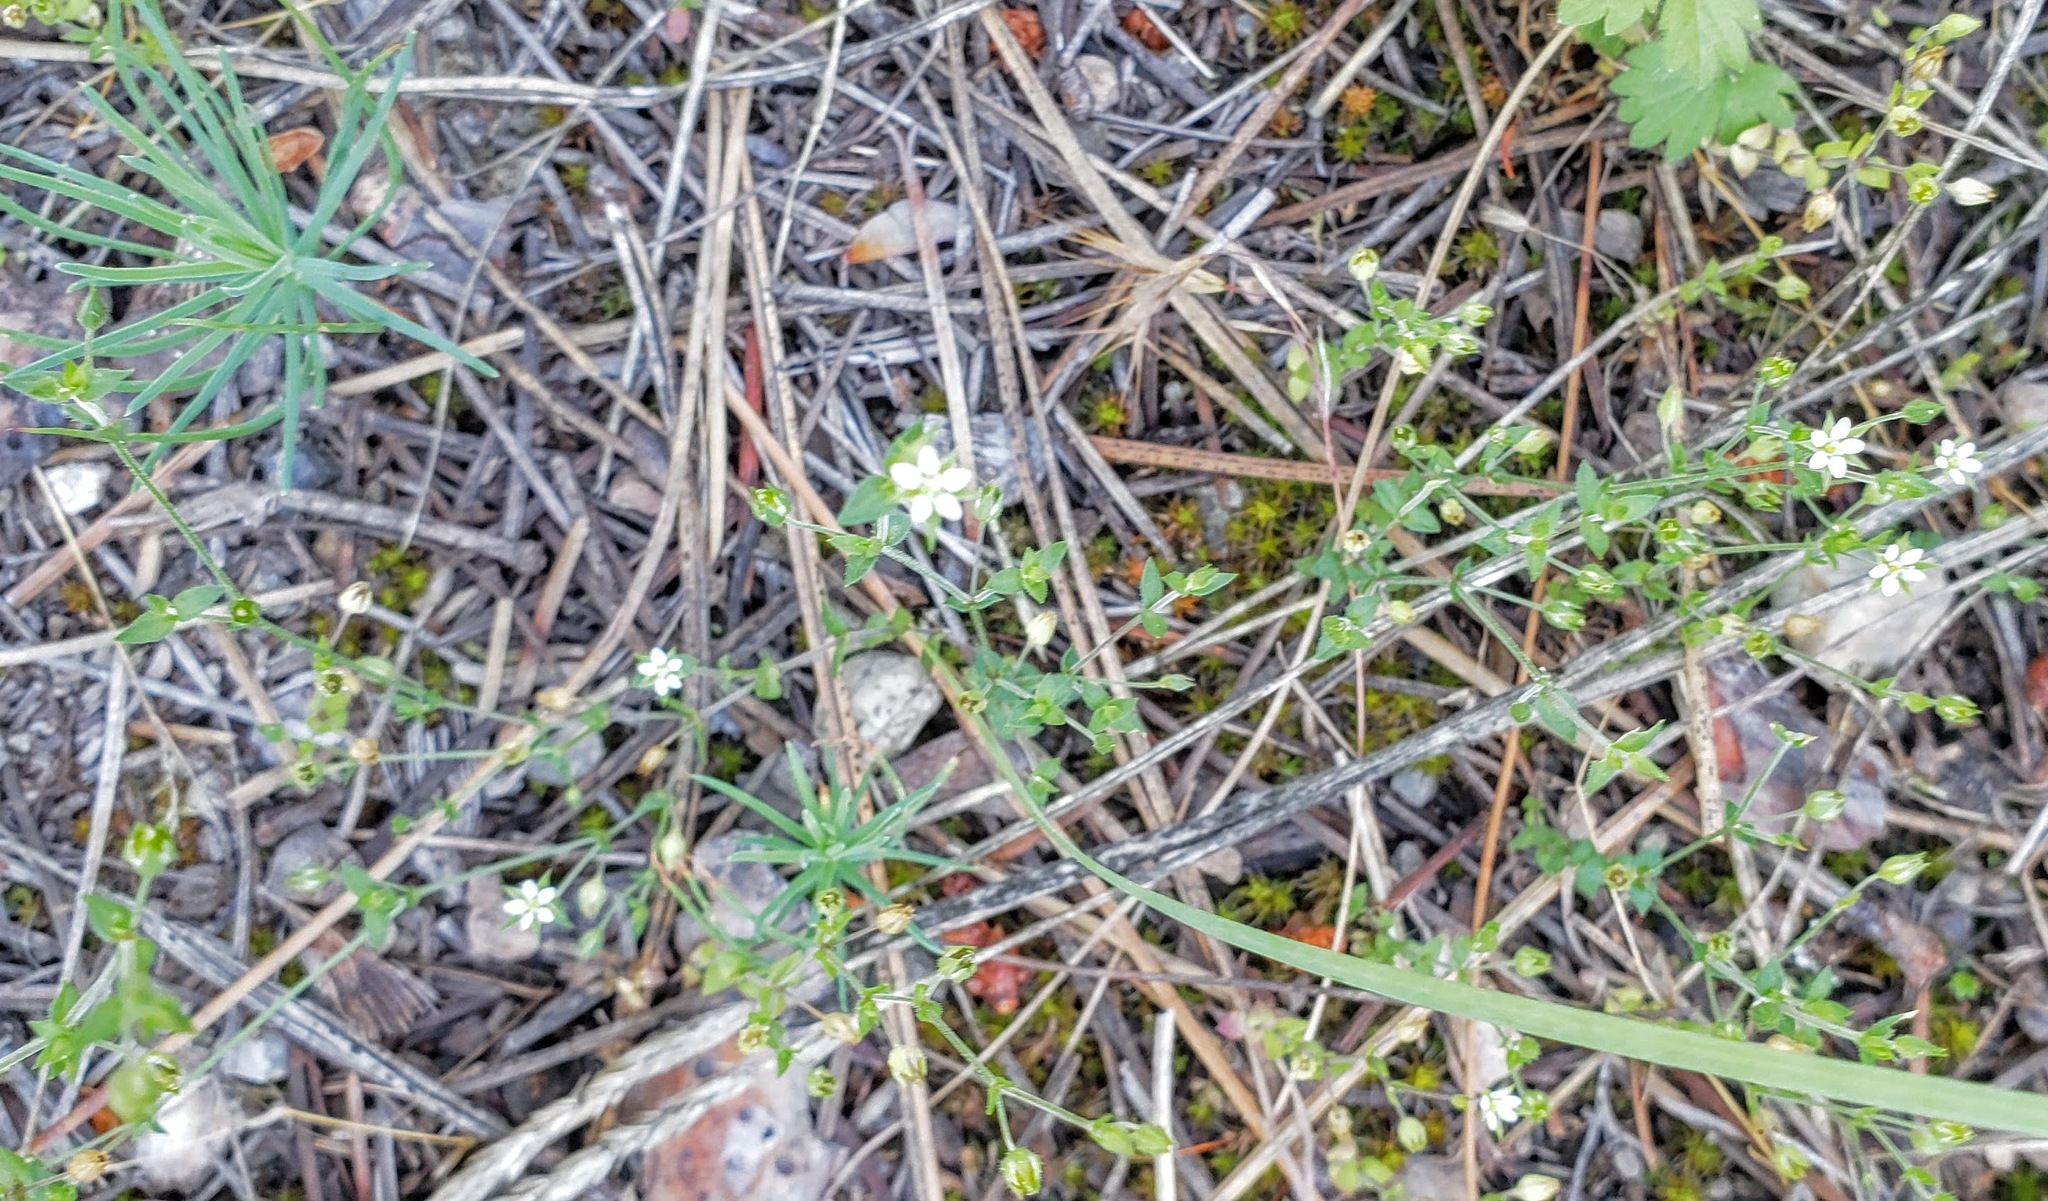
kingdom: Plantae
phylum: Tracheophyta
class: Magnoliopsida
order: Caryophyllales
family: Caryophyllaceae
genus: Arenaria
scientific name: Arenaria serpyllifolia
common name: Thyme-leaved sandwort
